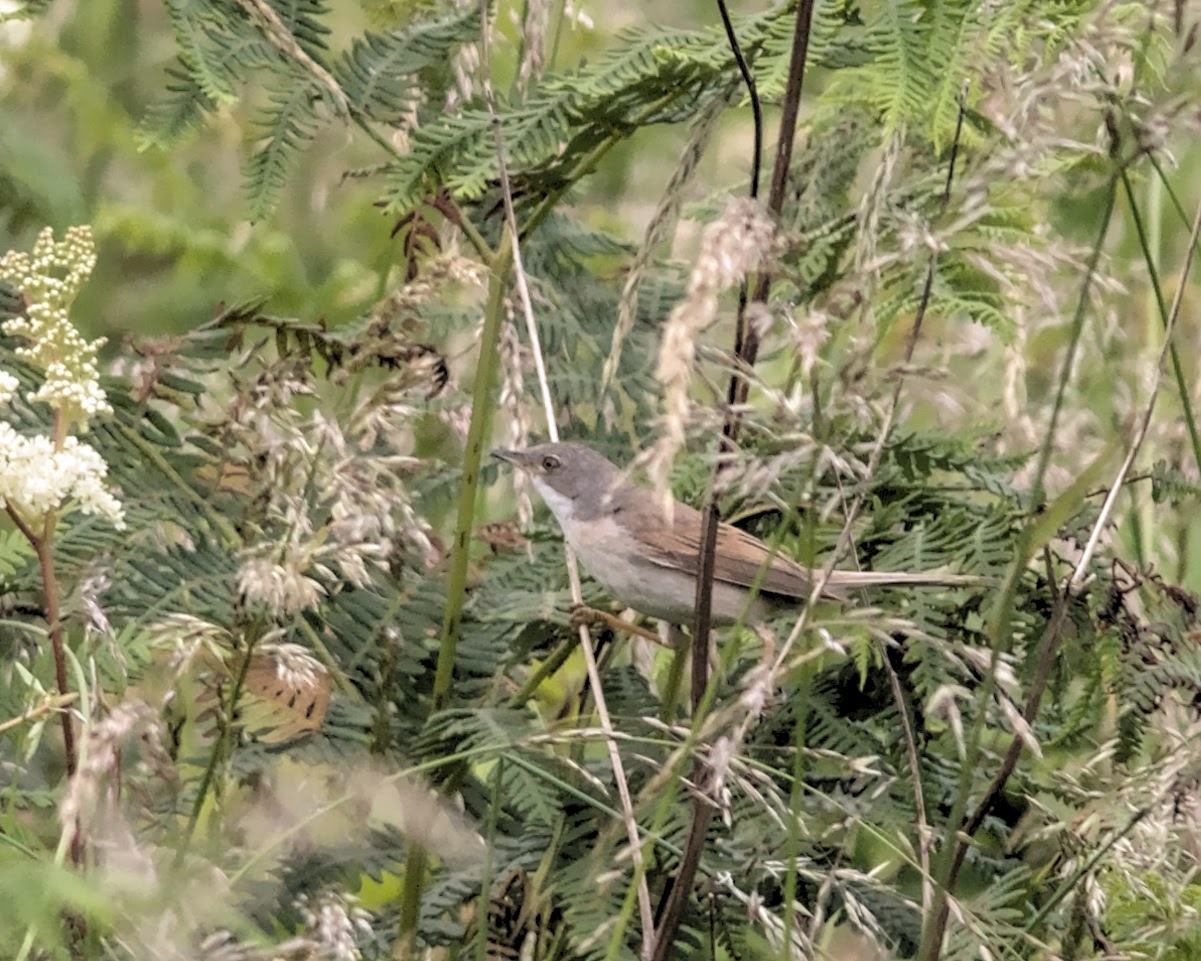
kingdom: Animalia
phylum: Chordata
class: Aves
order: Passeriformes
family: Sylviidae
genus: Sylvia
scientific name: Sylvia communis
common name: Common whitethroat
